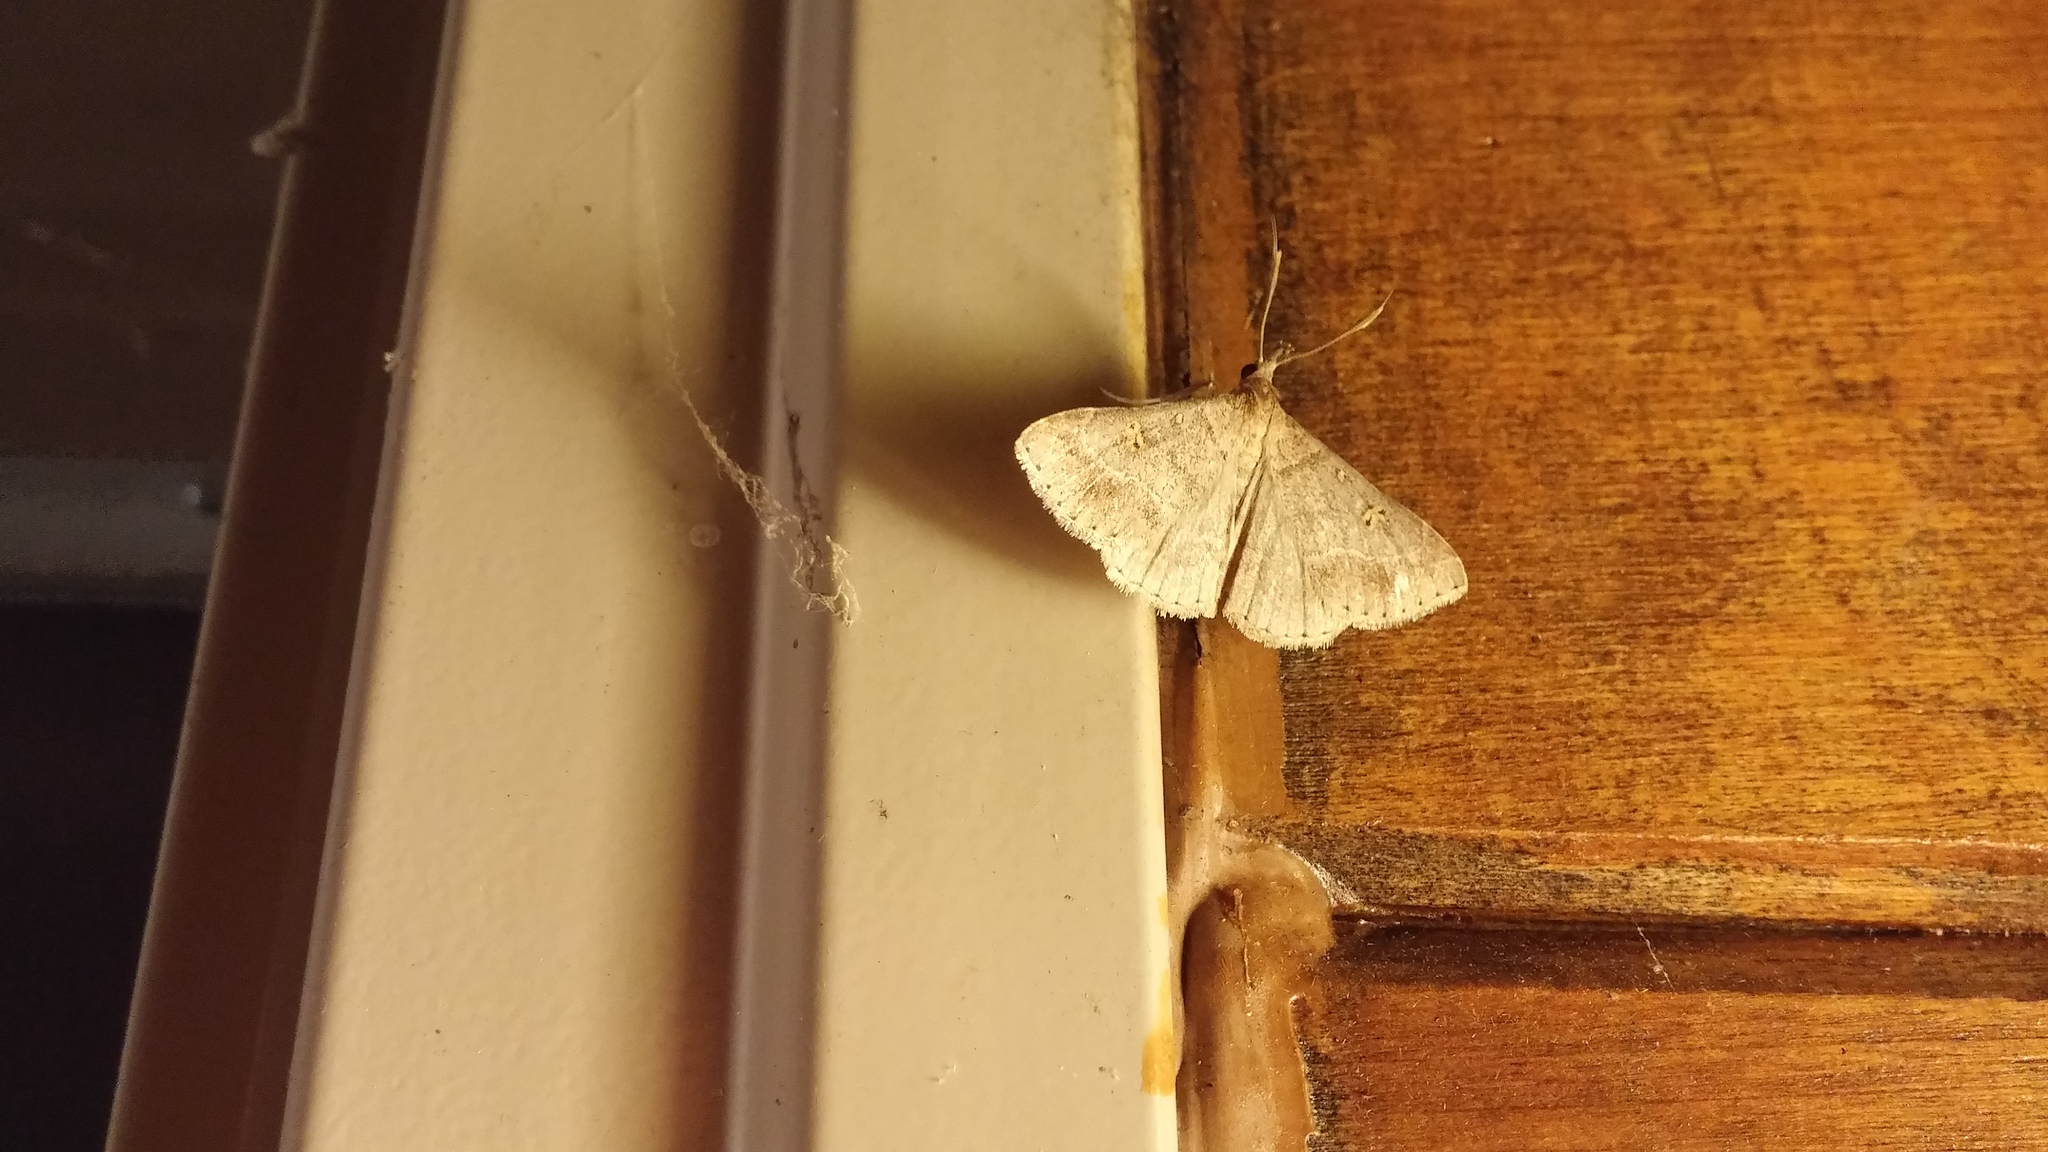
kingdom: Animalia
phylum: Arthropoda
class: Insecta
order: Lepidoptera
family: Erebidae
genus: Renia
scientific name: Renia flavipunctalis
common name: Yellow-spotted renia moth
